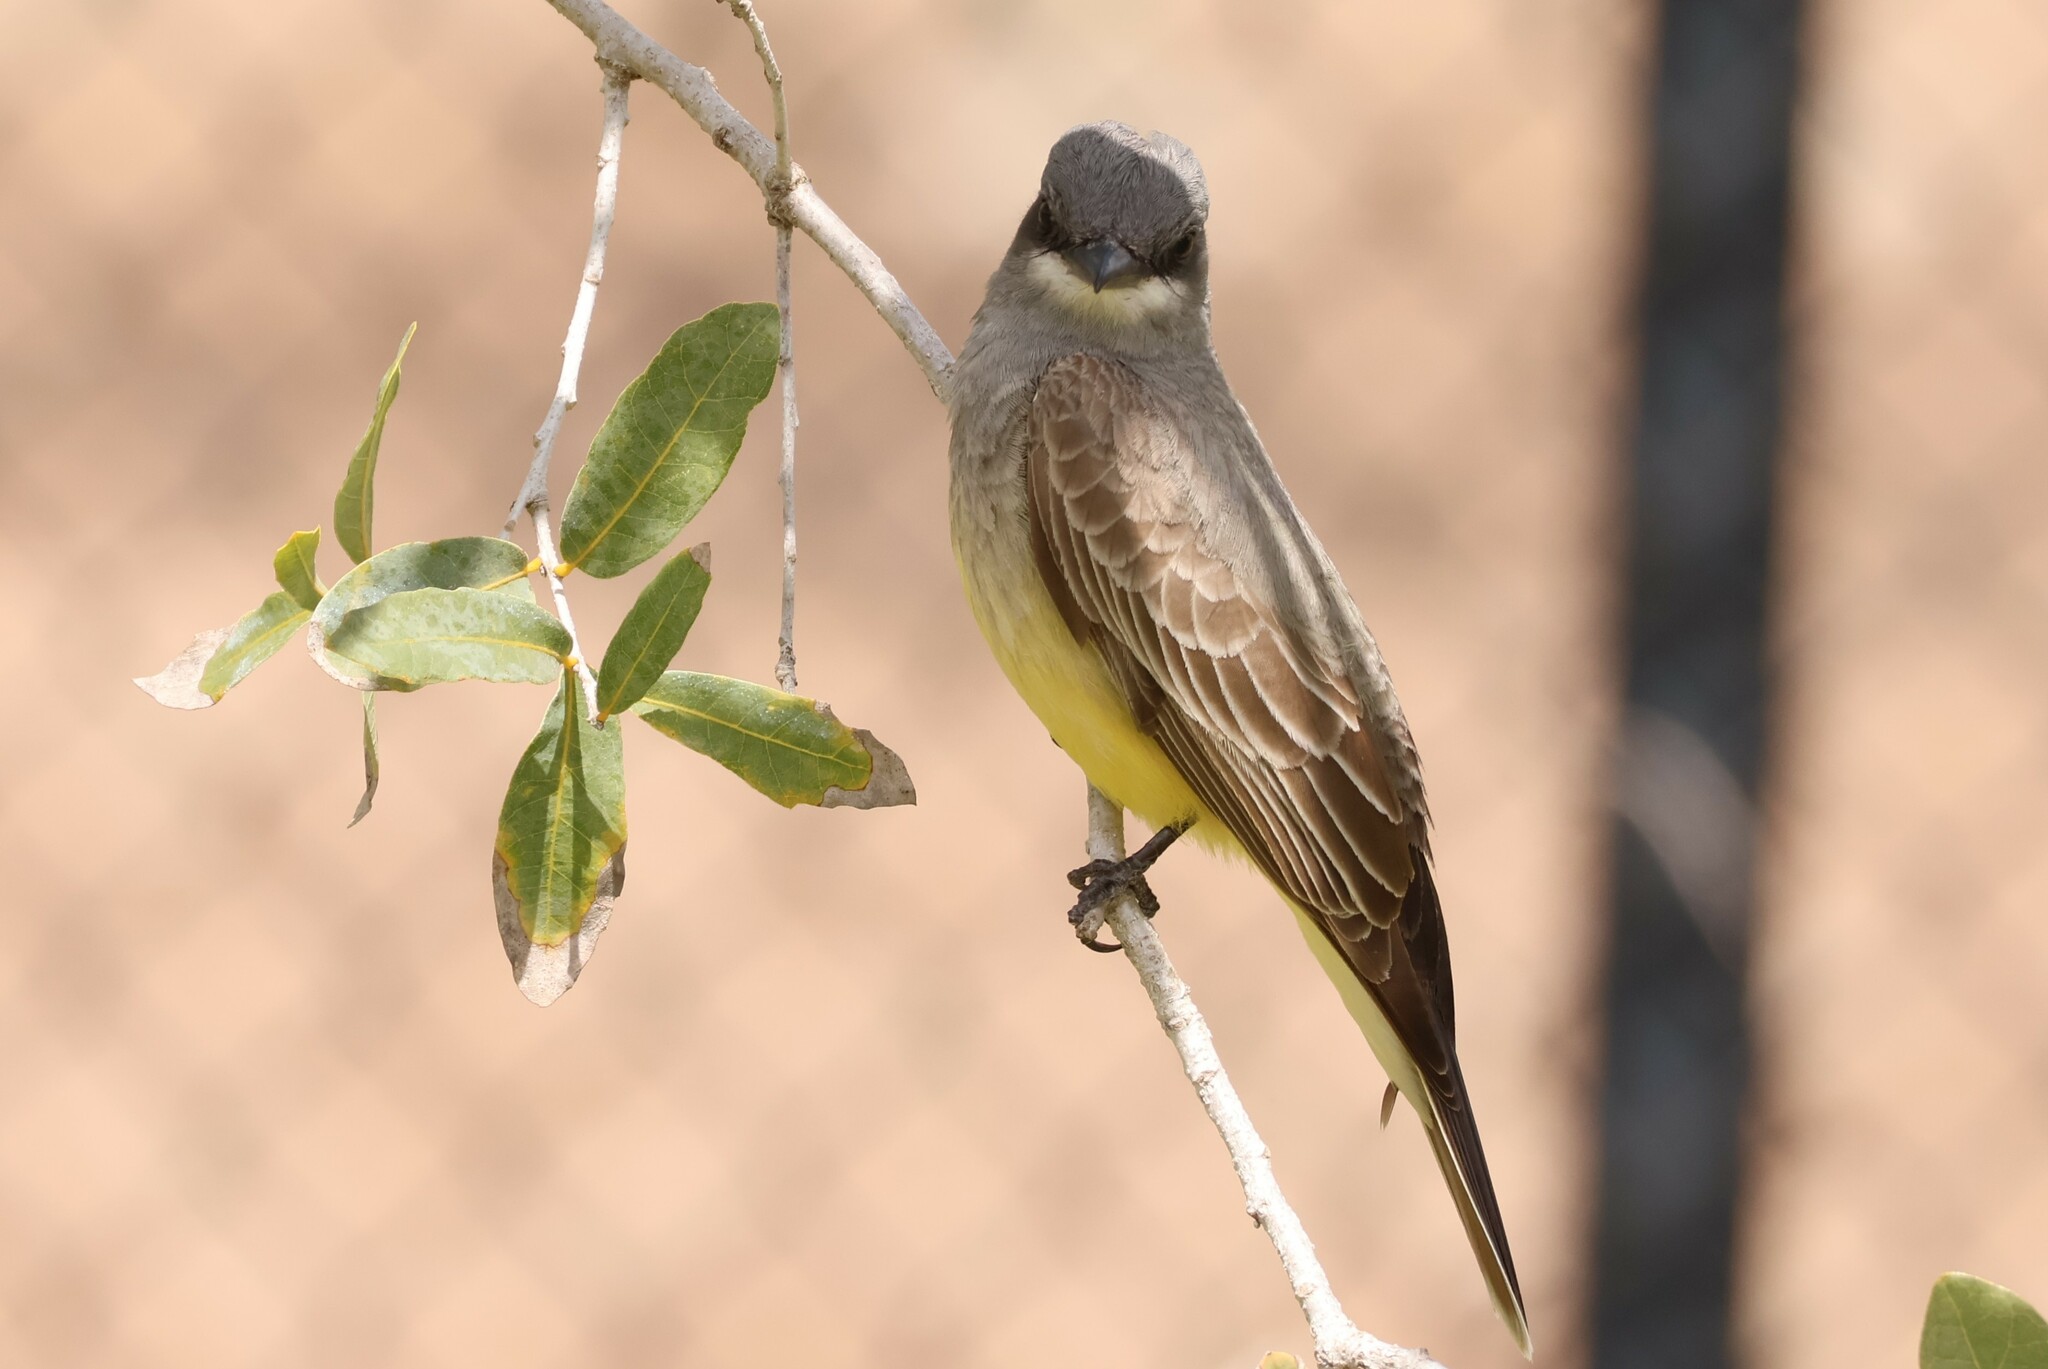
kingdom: Animalia
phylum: Chordata
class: Aves
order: Passeriformes
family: Tyrannidae
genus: Tyrannus
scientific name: Tyrannus vociferans
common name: Cassin's kingbird
